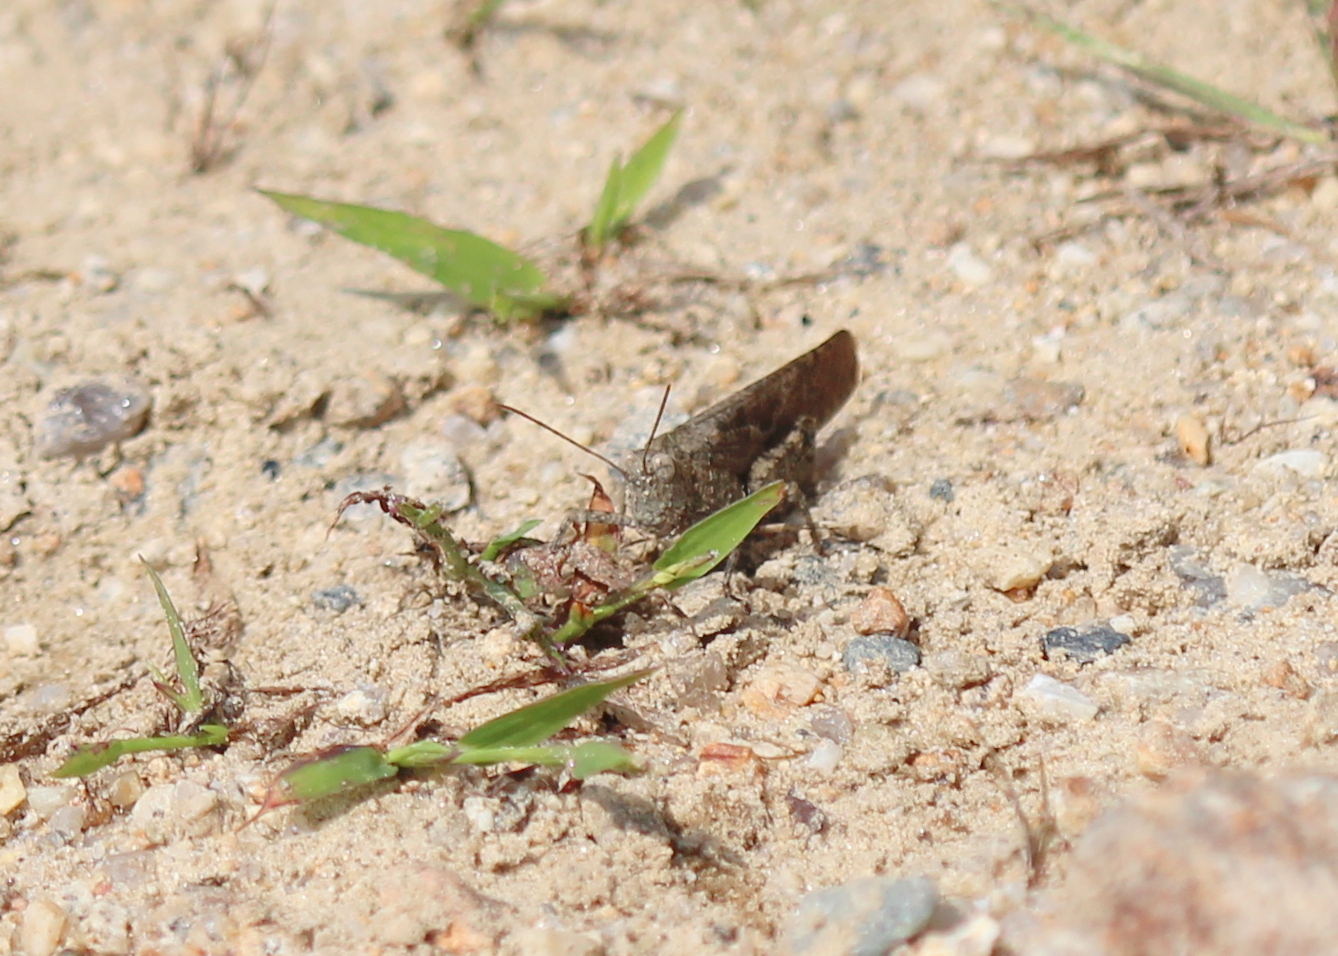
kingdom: Animalia
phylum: Arthropoda
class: Insecta
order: Orthoptera
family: Acrididae
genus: Dissosteira
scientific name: Dissosteira carolina
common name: Carolina grasshopper
